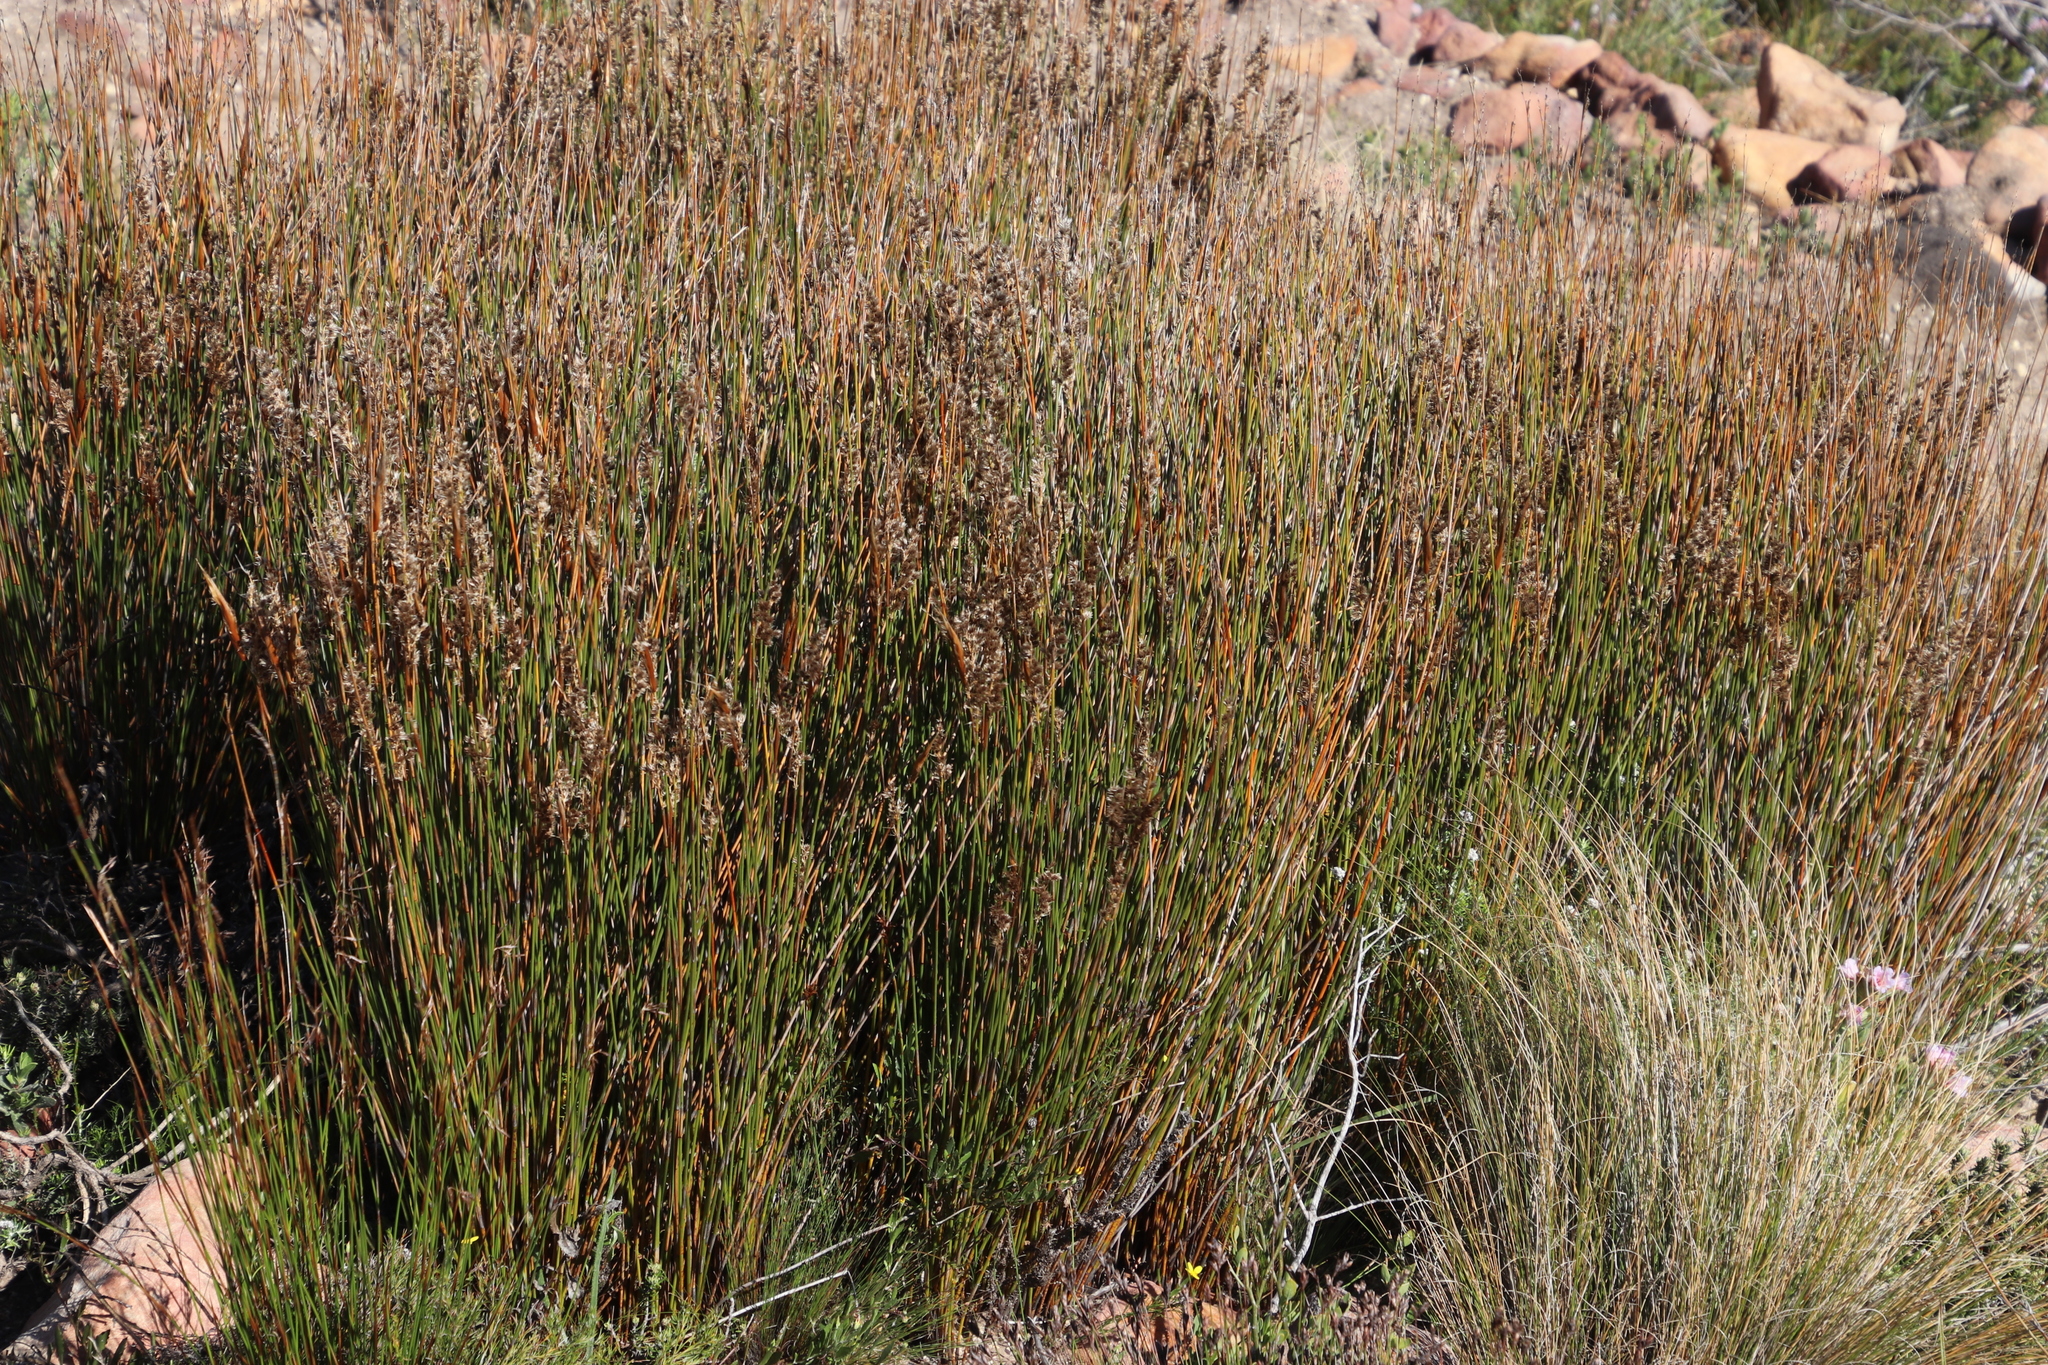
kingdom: Plantae
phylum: Tracheophyta
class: Liliopsida
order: Poales
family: Restionaceae
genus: Hypodiscus
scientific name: Hypodiscus argenteus
